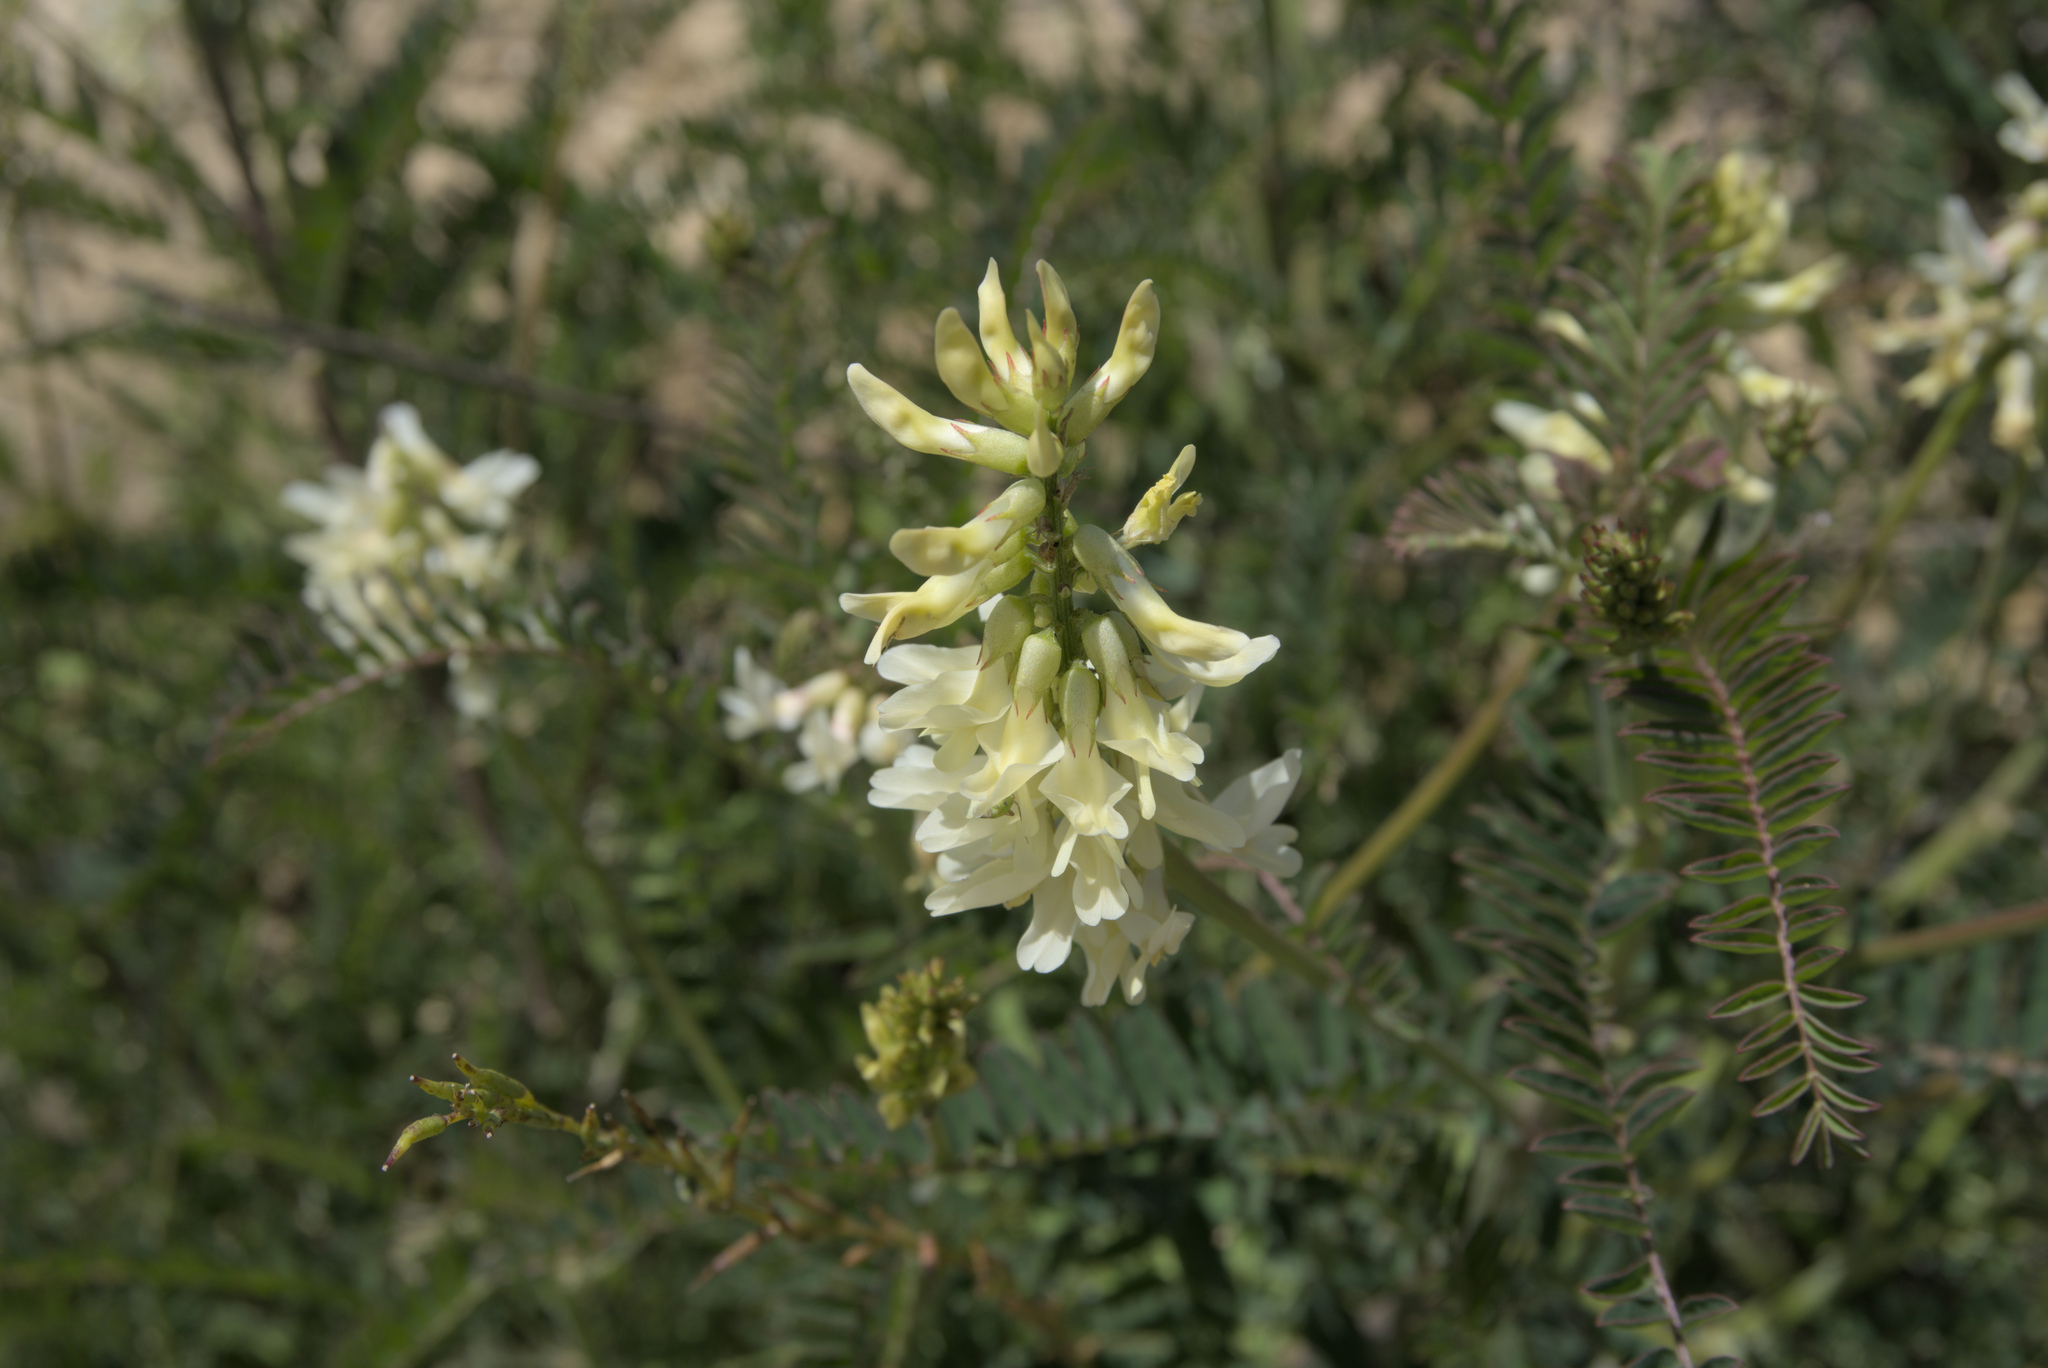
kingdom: Plantae
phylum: Tracheophyta
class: Magnoliopsida
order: Fabales
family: Fabaceae
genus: Astragalus
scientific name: Astragalus trichopodus
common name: Santa barbara milk-vetch
